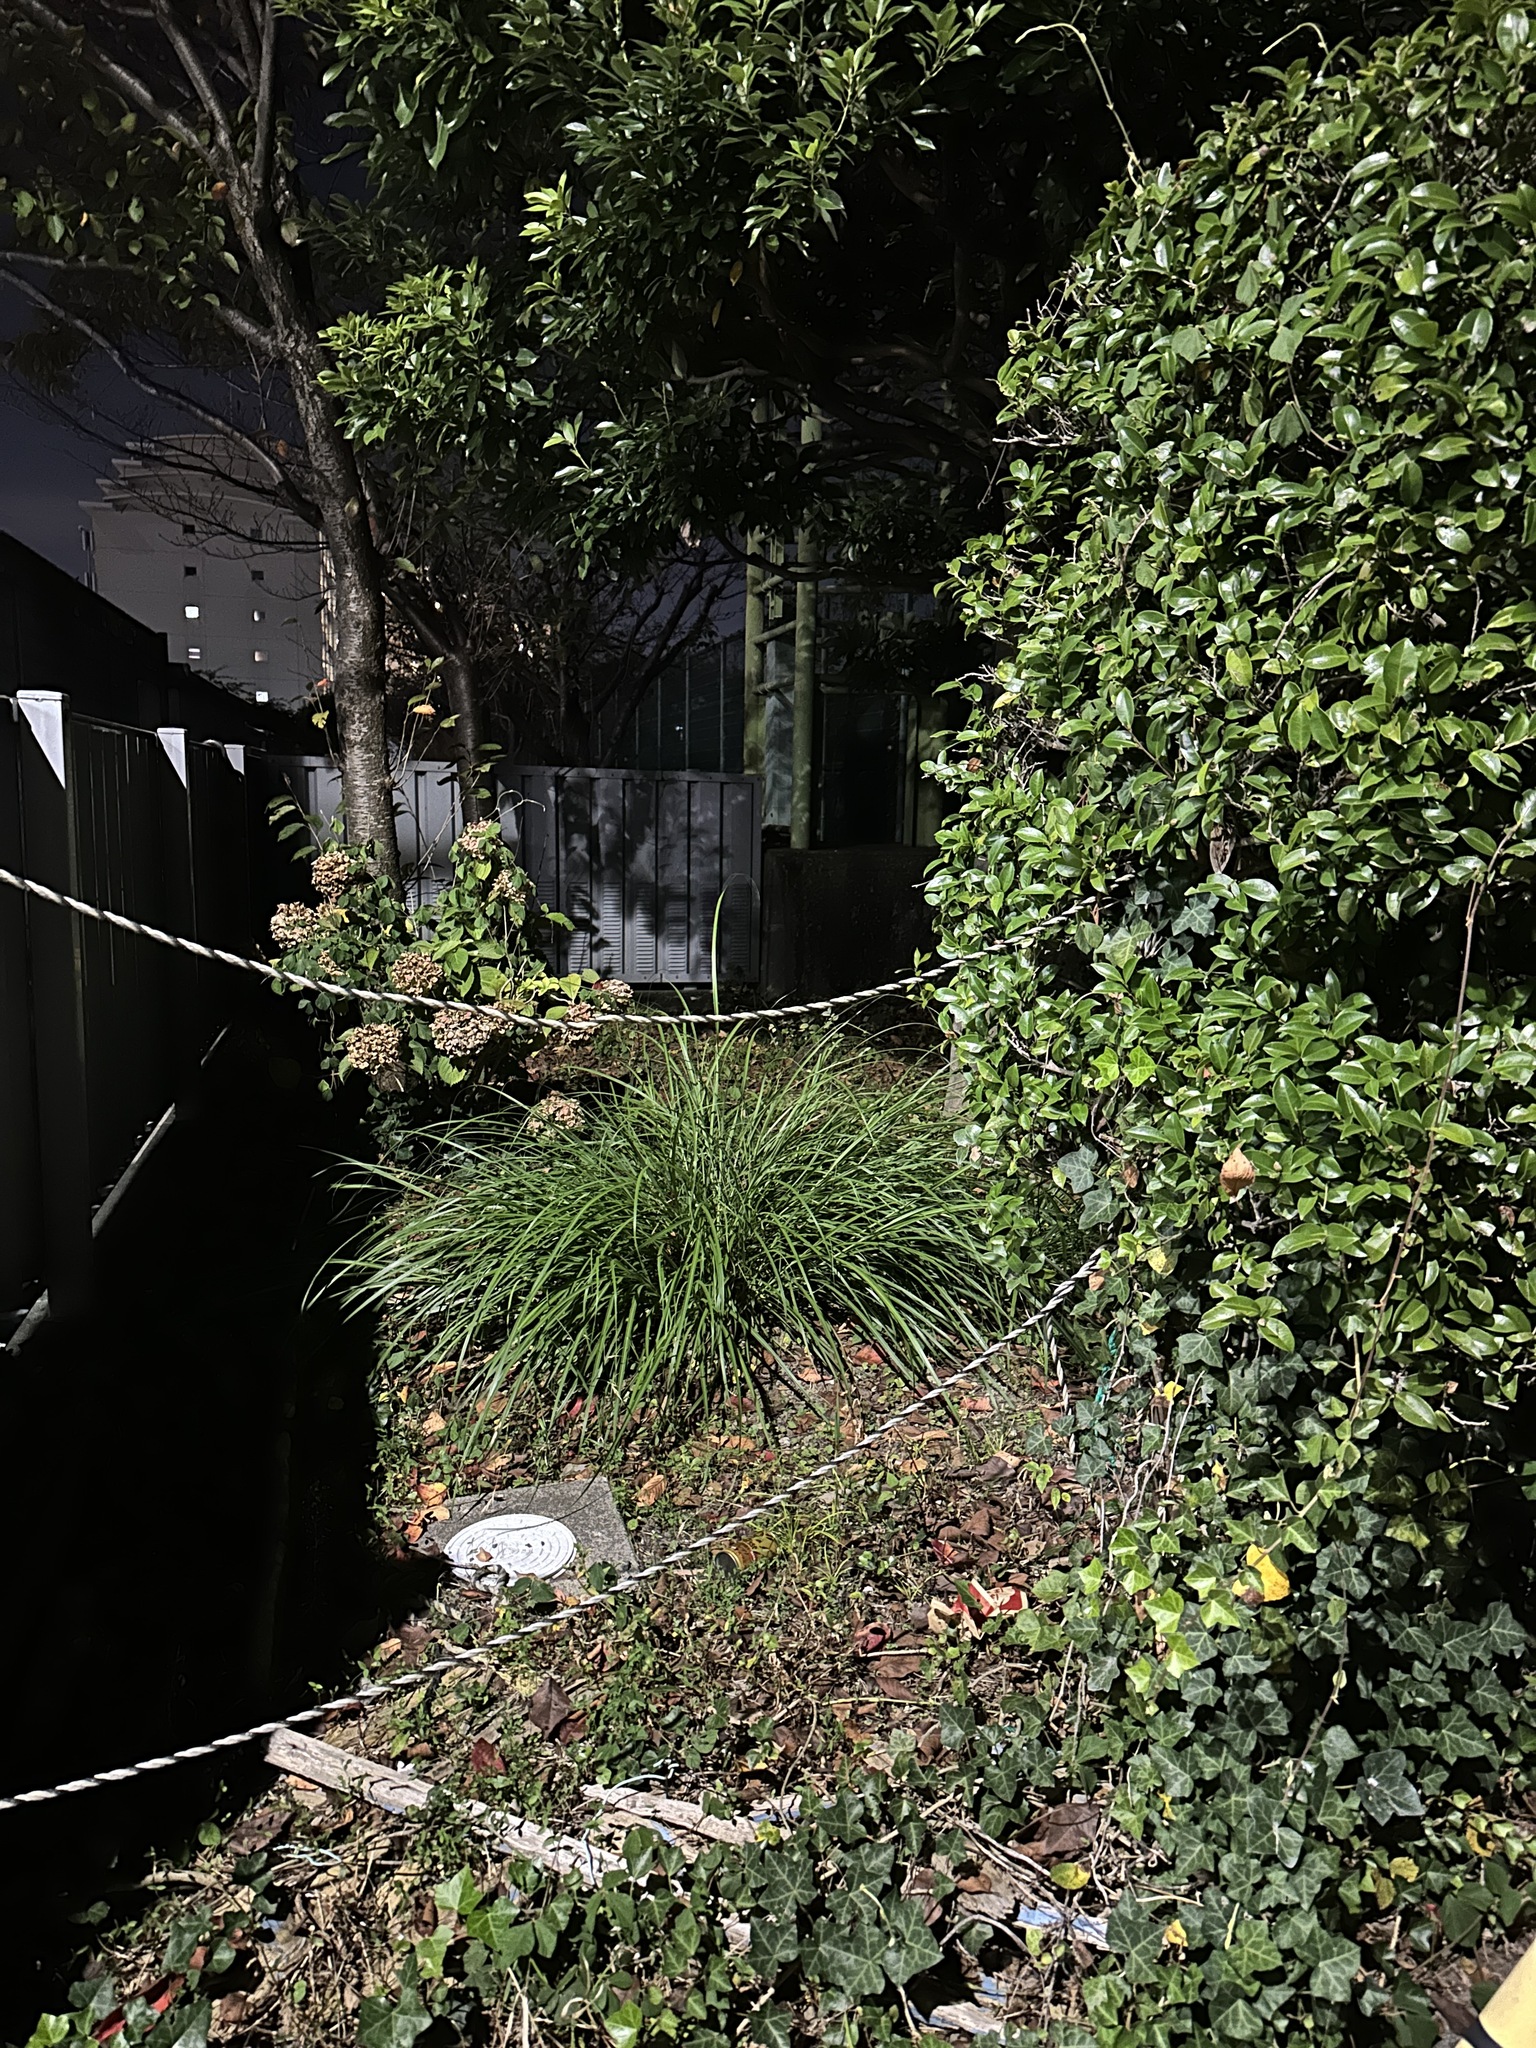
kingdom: Animalia
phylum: Arthropoda
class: Insecta
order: Orthoptera
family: Gryllidae
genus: Xenogryllus
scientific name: Xenogryllus marmoratus
